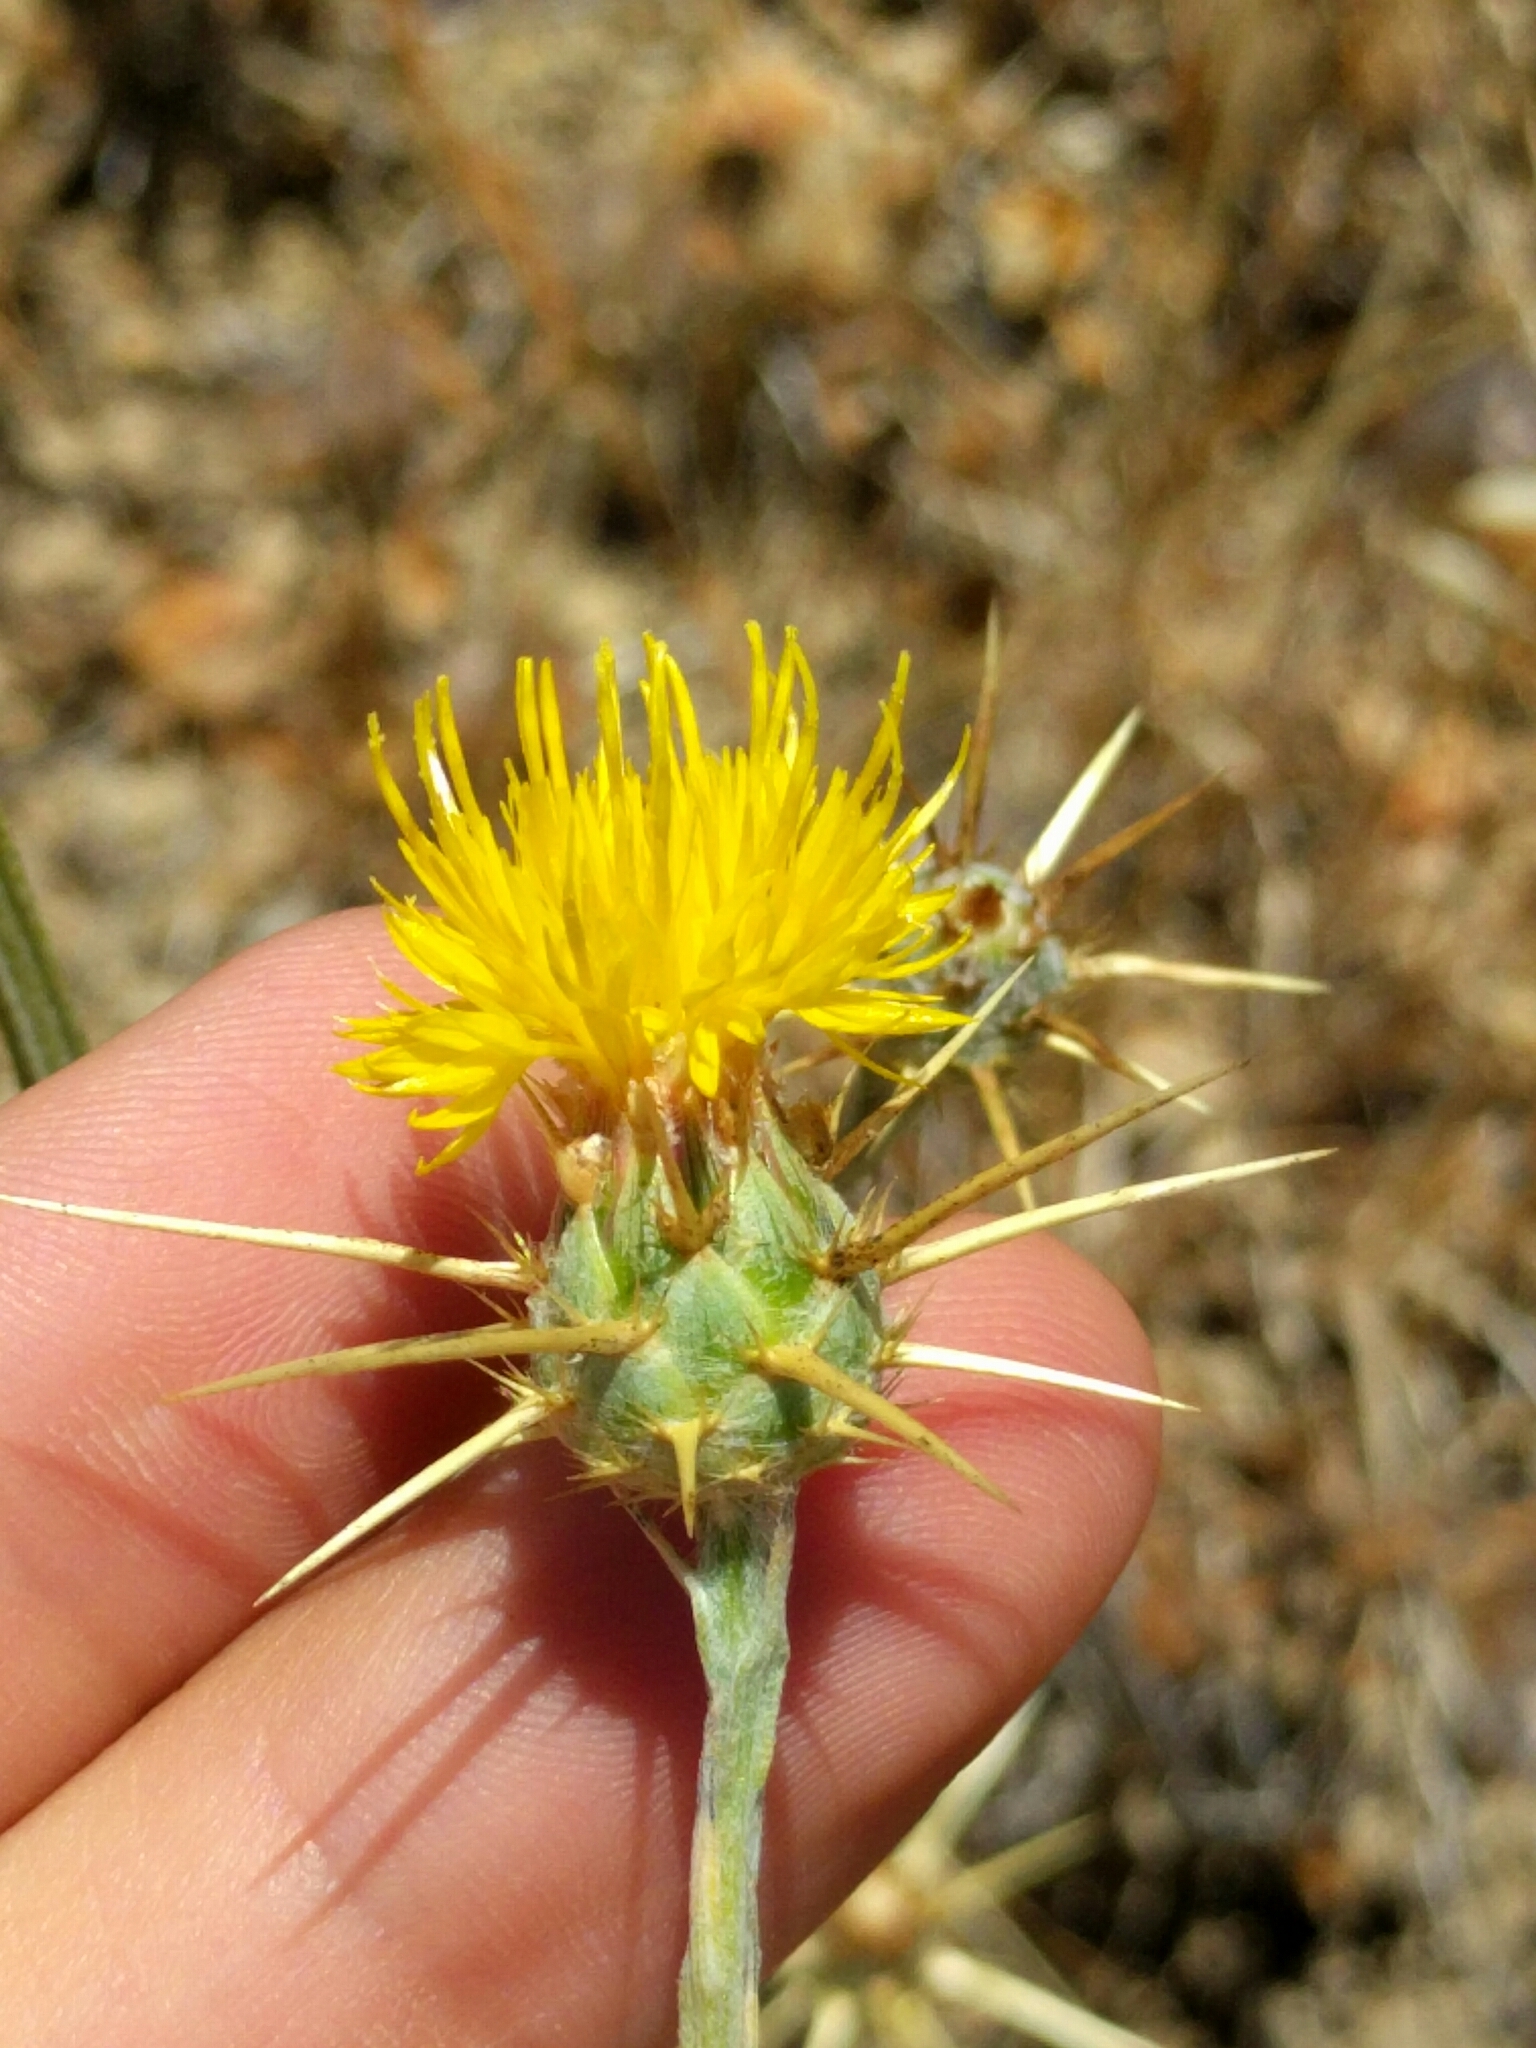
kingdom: Plantae
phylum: Tracheophyta
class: Magnoliopsida
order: Asterales
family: Asteraceae
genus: Centaurea
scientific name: Centaurea solstitialis
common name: Yellow star-thistle
